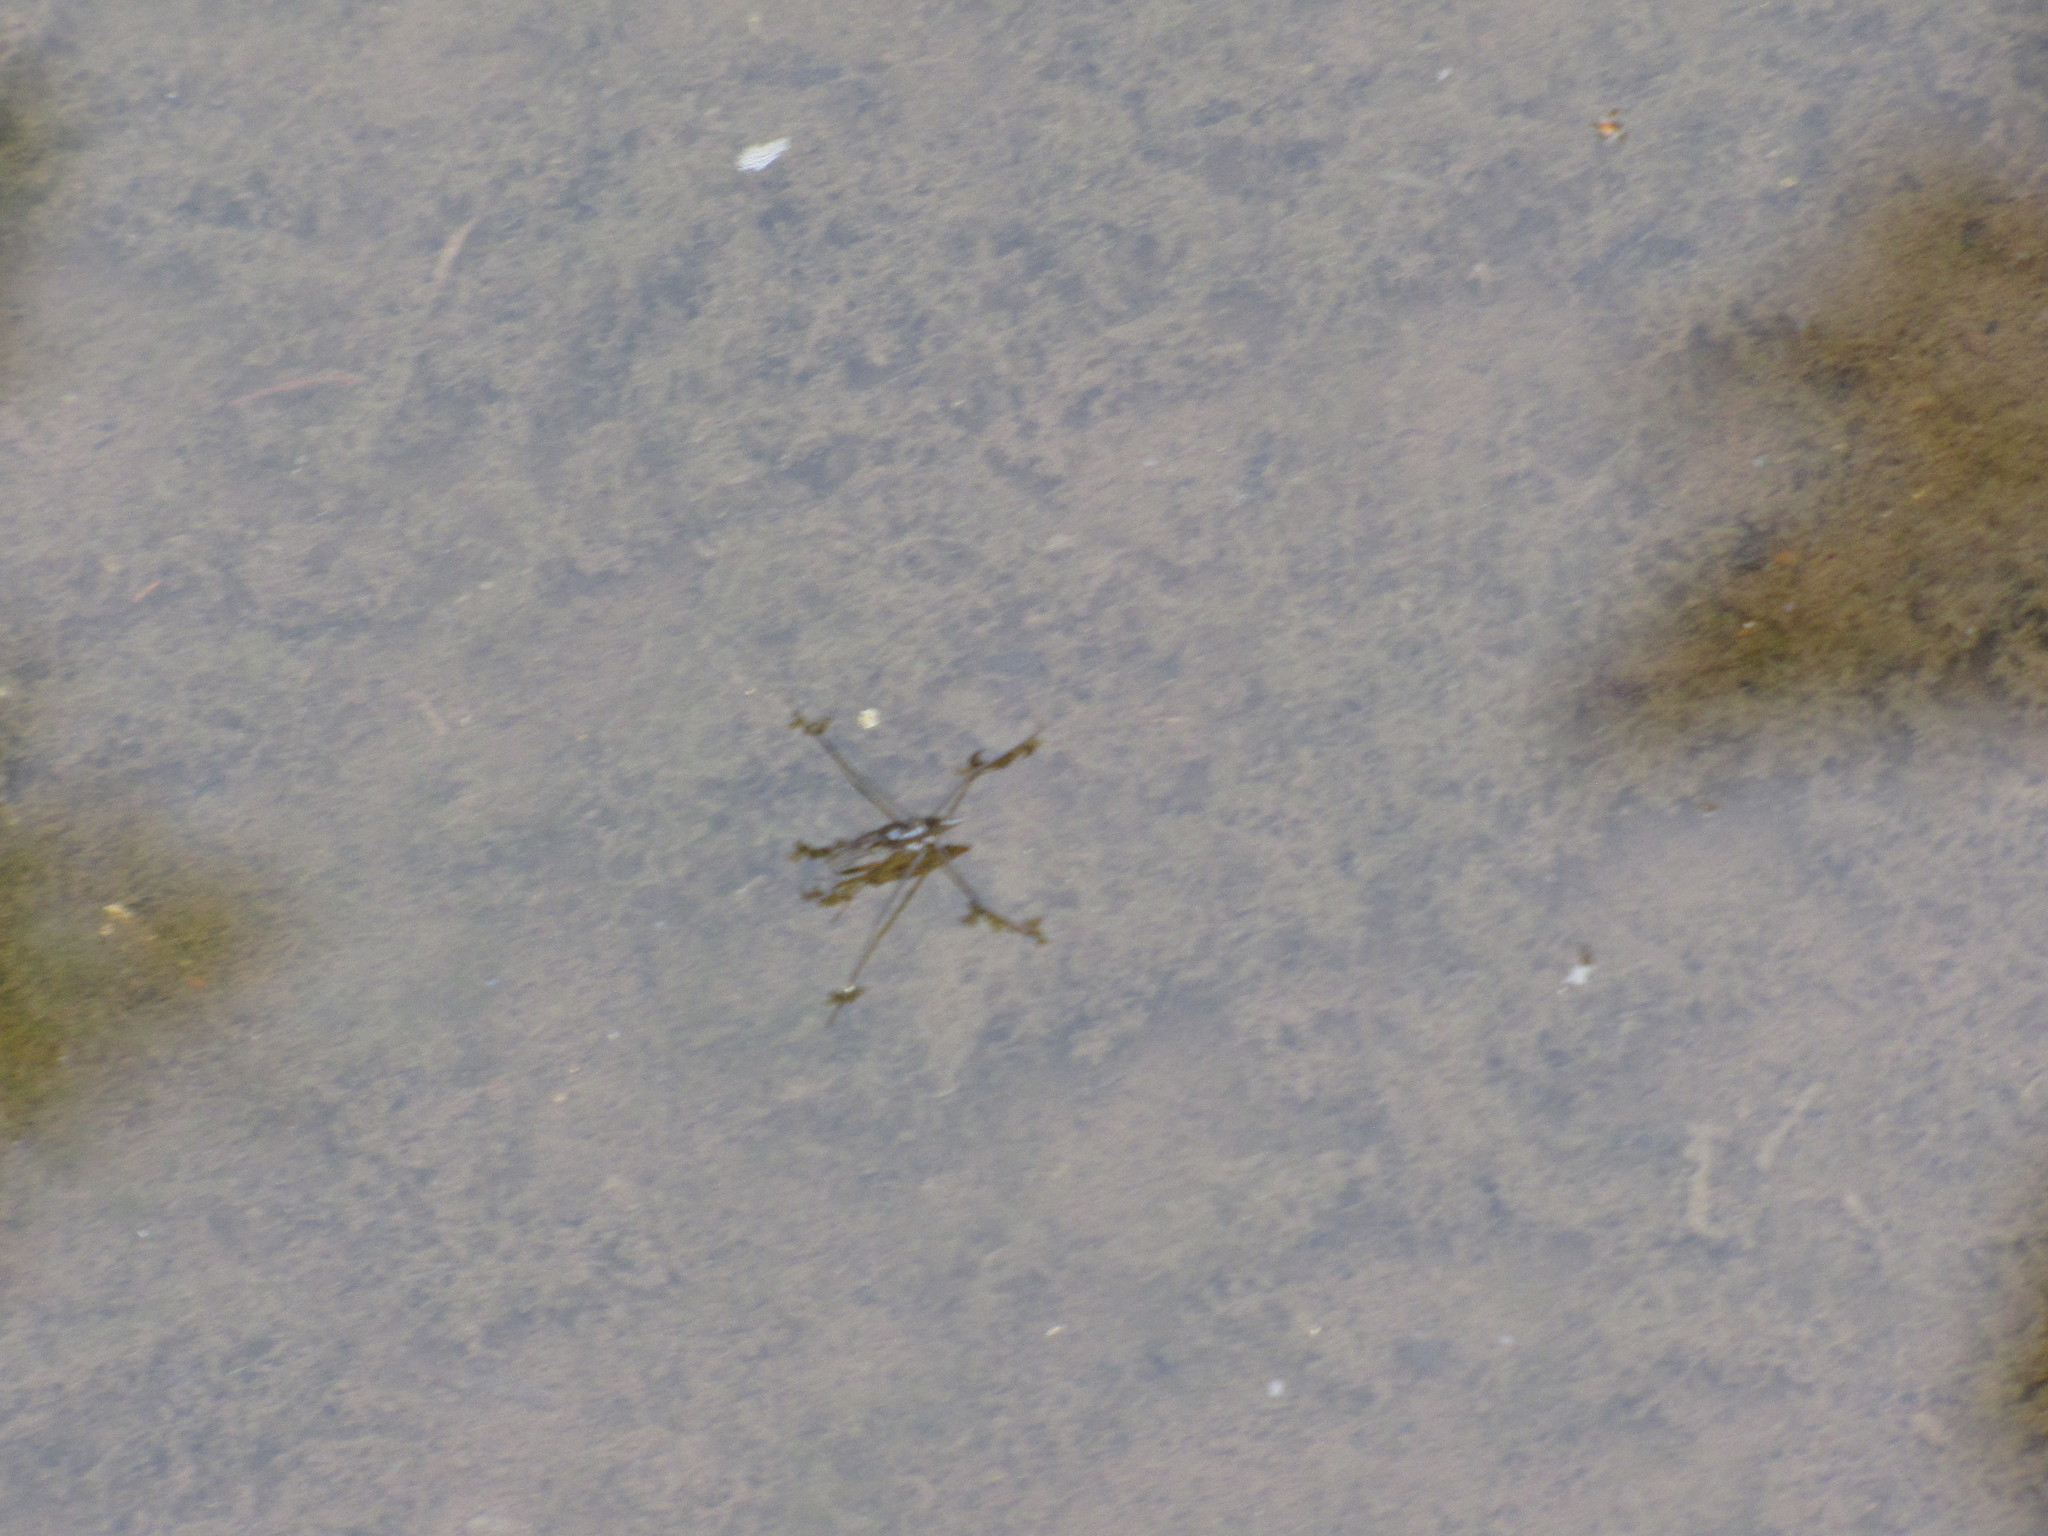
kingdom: Animalia
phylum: Arthropoda
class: Insecta
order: Hemiptera
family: Gerridae
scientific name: Gerridae
